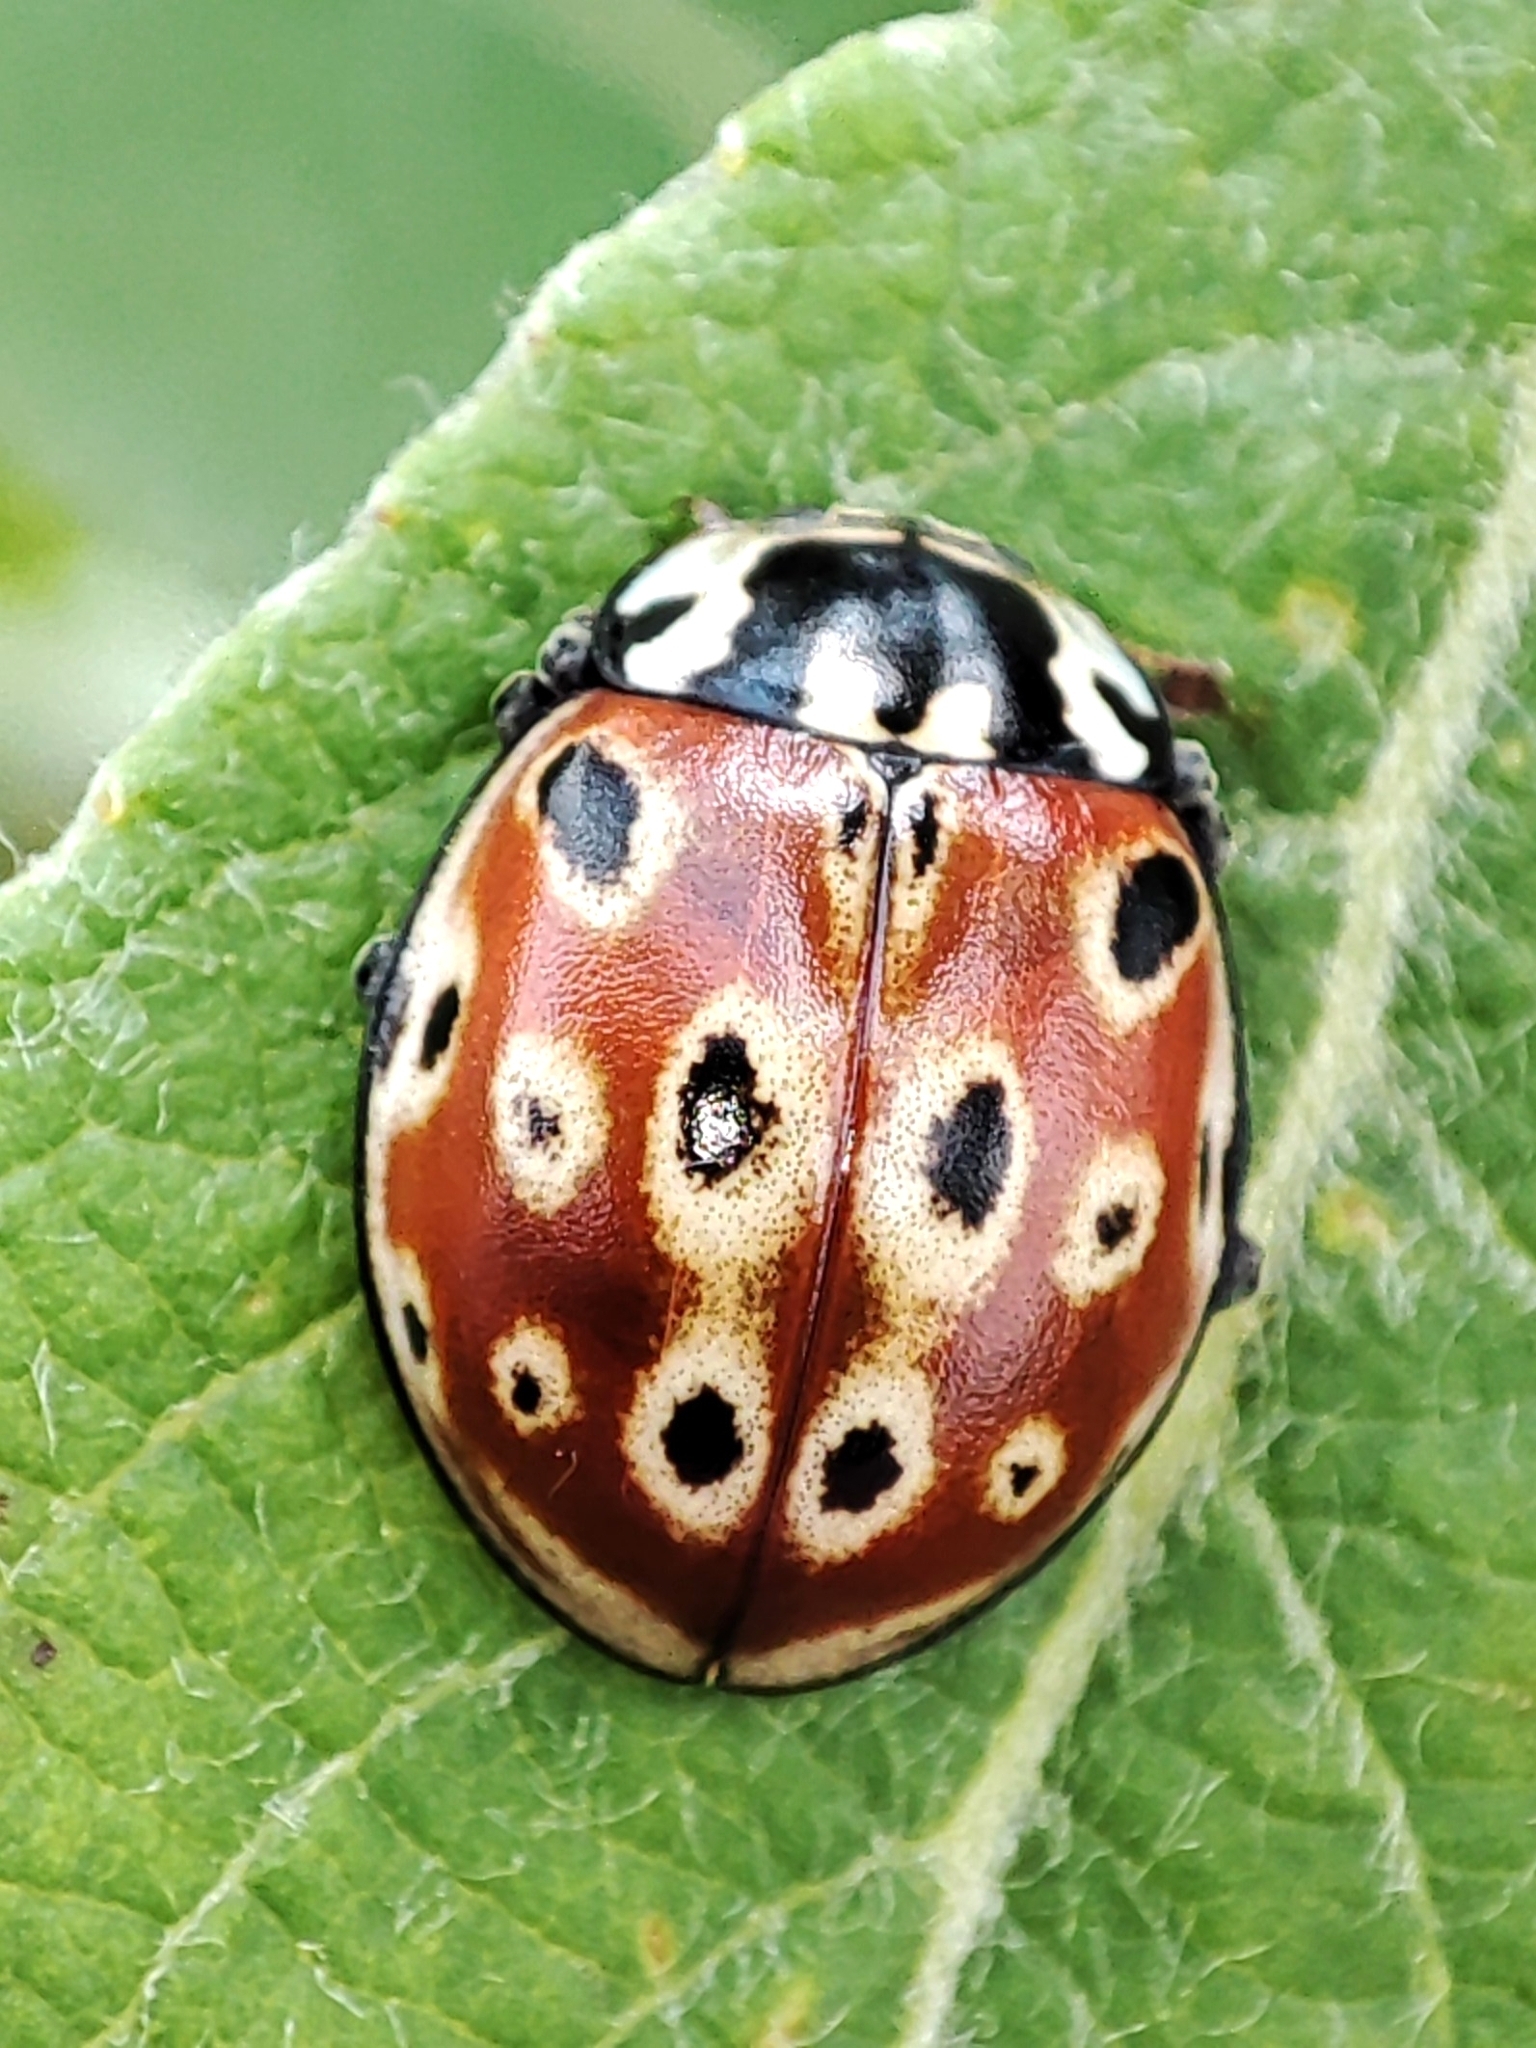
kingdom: Animalia
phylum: Arthropoda
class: Insecta
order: Coleoptera
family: Coccinellidae
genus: Anatis
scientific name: Anatis ocellata
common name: Eyed ladybird
